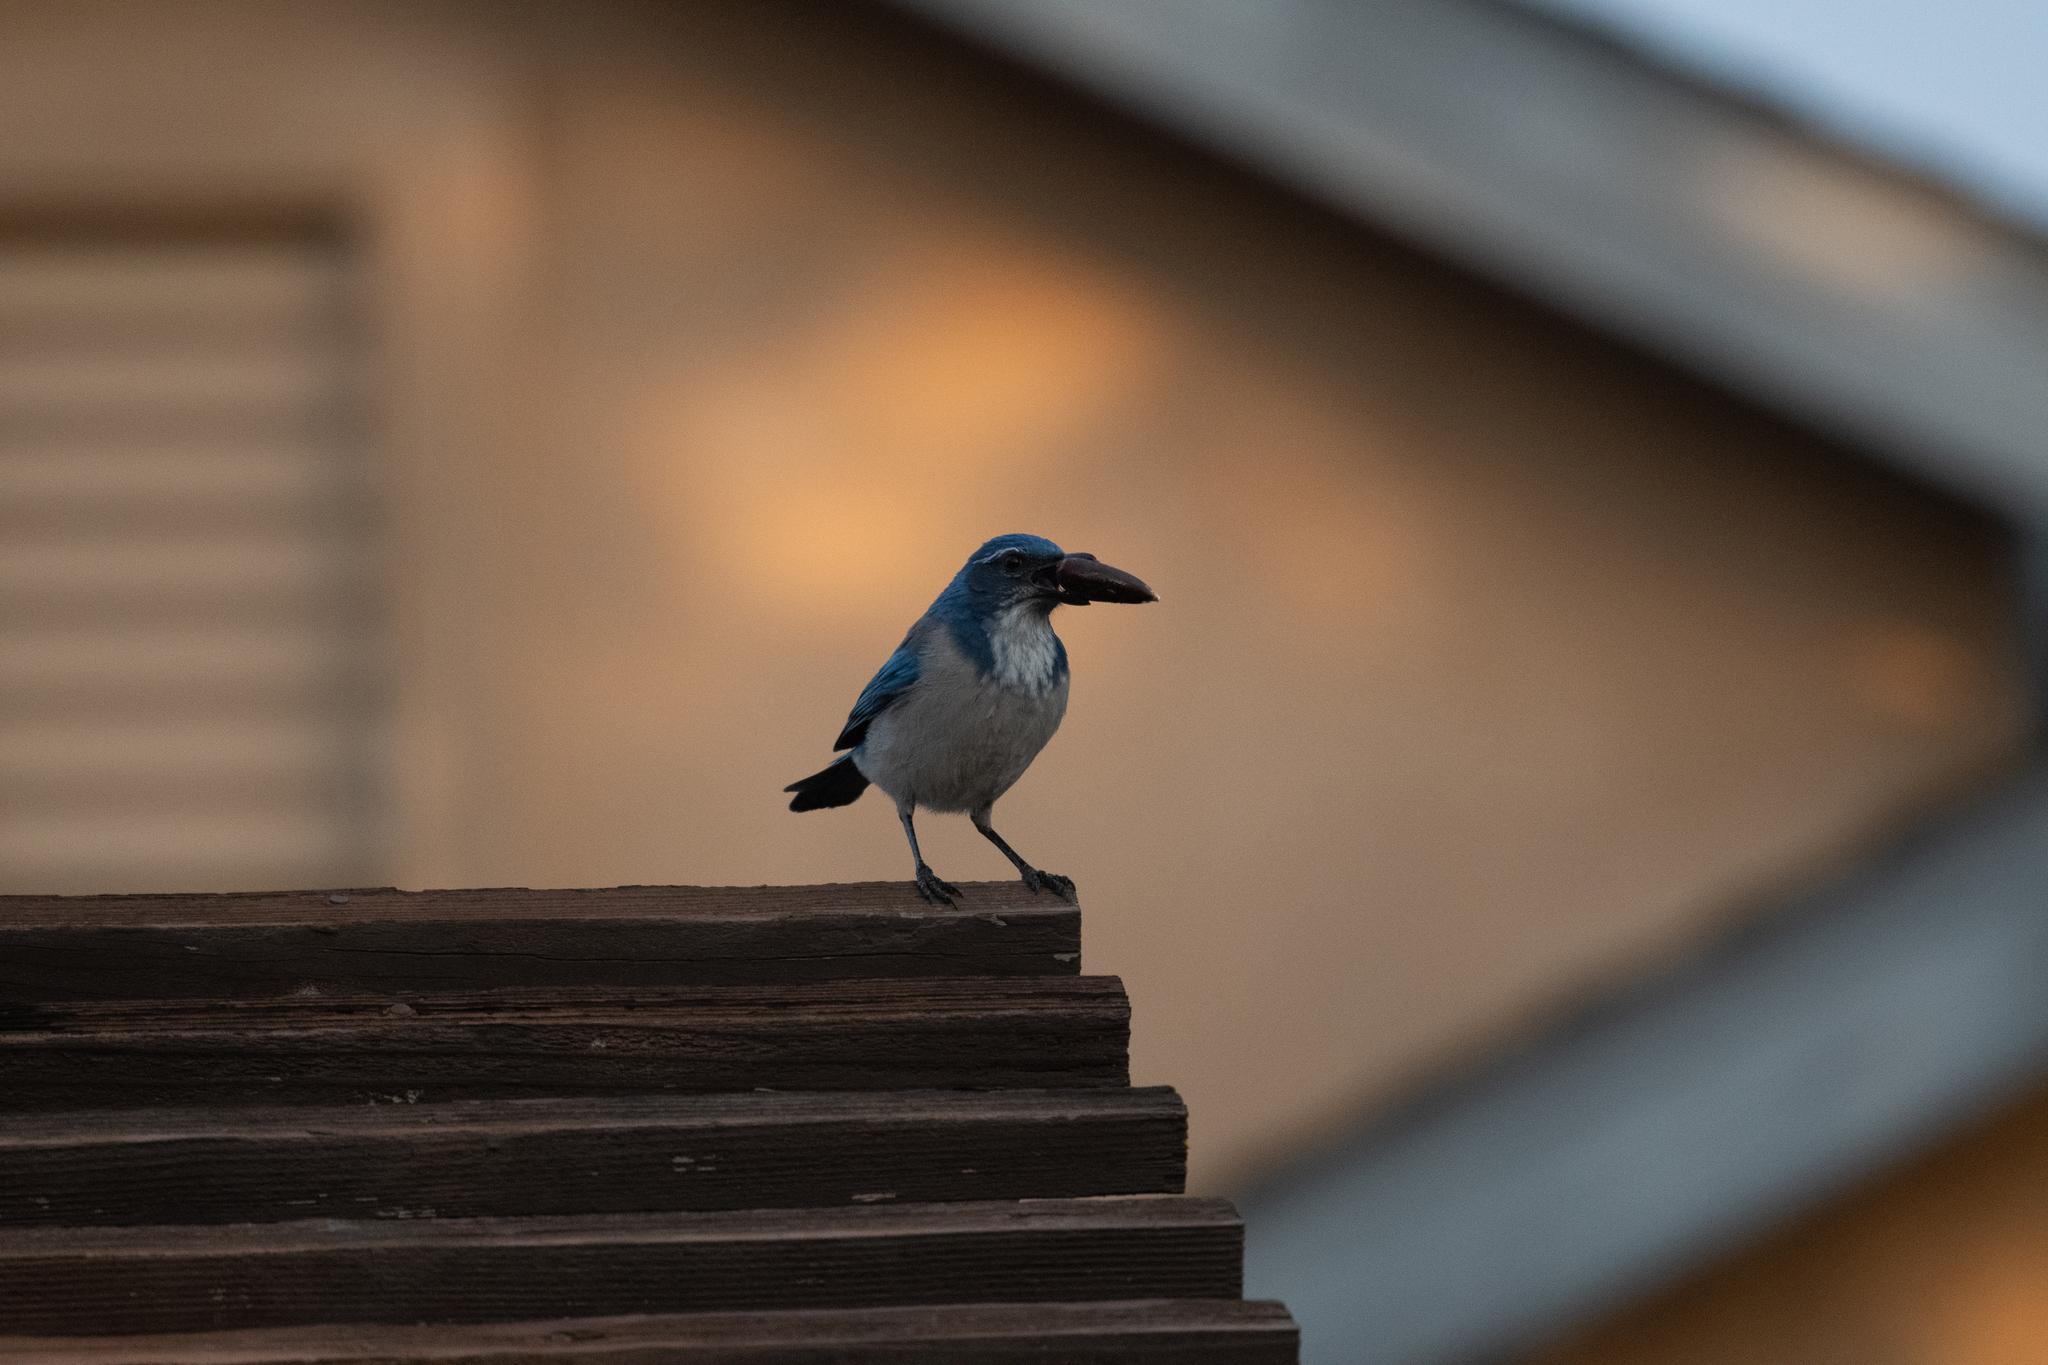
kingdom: Animalia
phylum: Chordata
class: Aves
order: Passeriformes
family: Corvidae
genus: Aphelocoma
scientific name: Aphelocoma californica
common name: California scrub-jay
